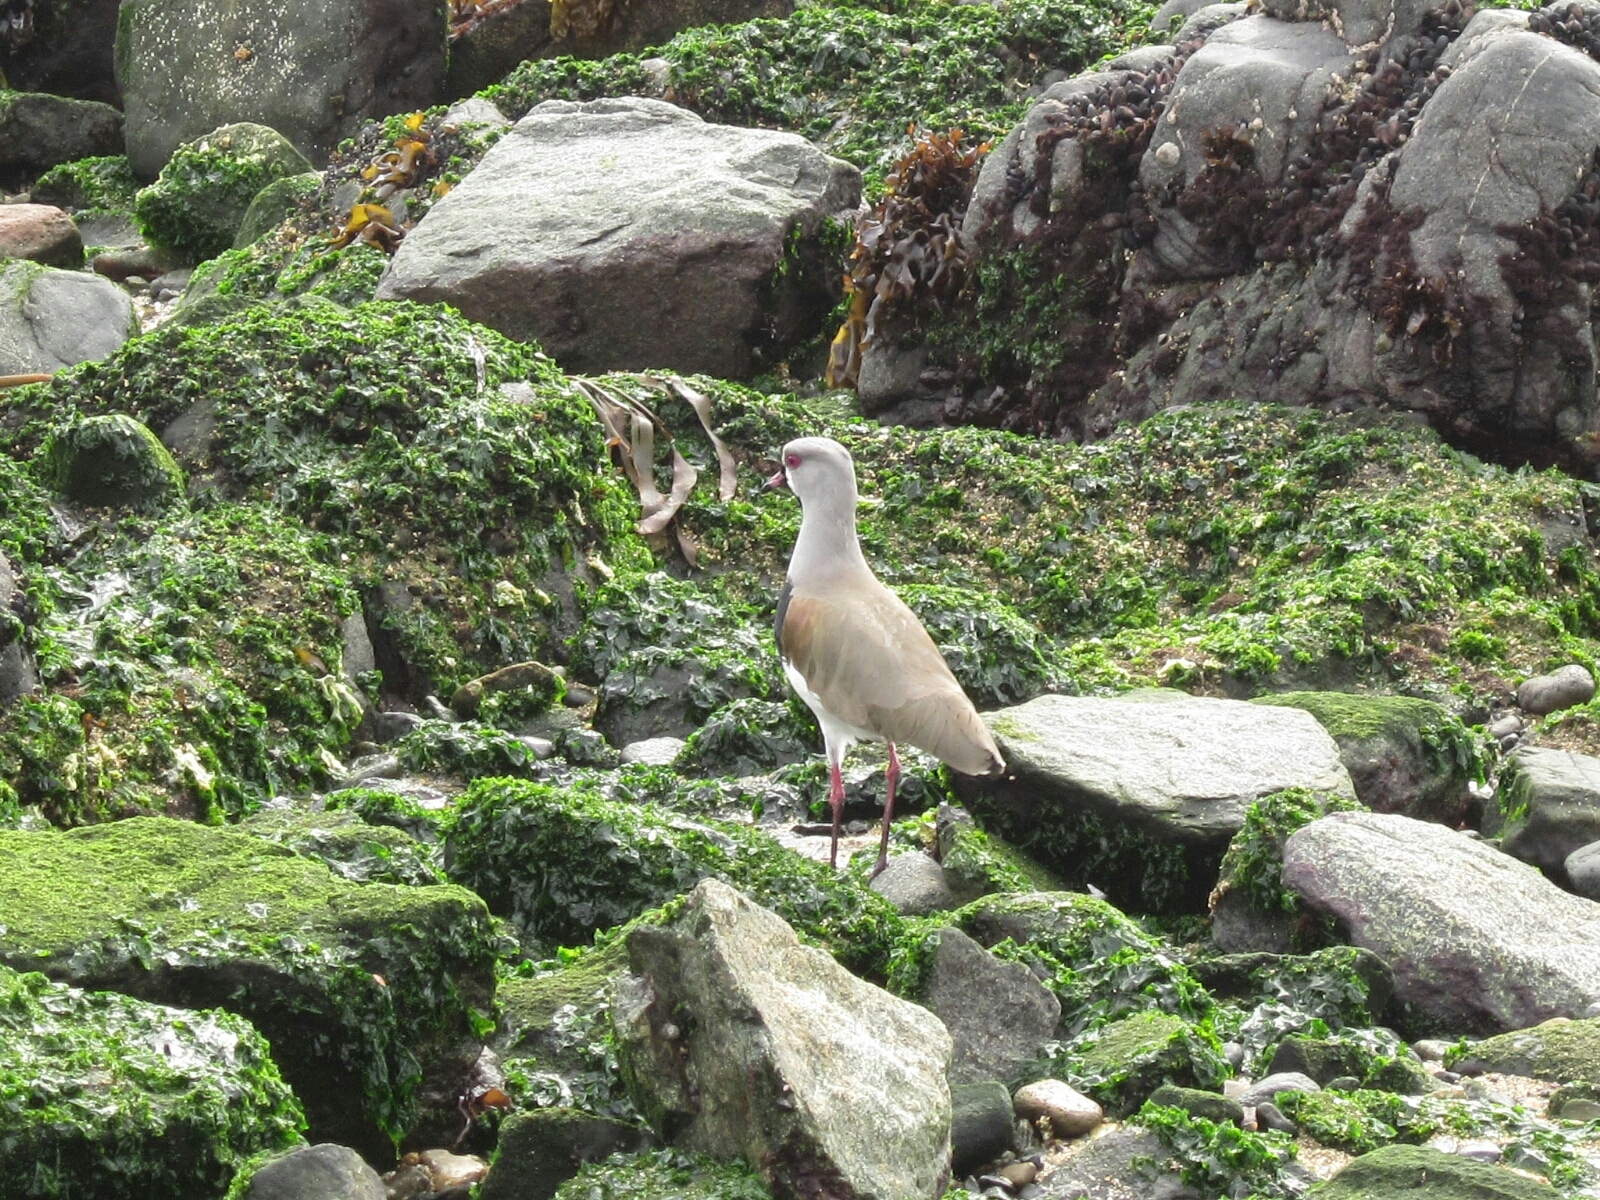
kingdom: Animalia
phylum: Chordata
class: Aves
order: Charadriiformes
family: Charadriidae
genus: Vanellus
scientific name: Vanellus chilensis
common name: Southern lapwing
